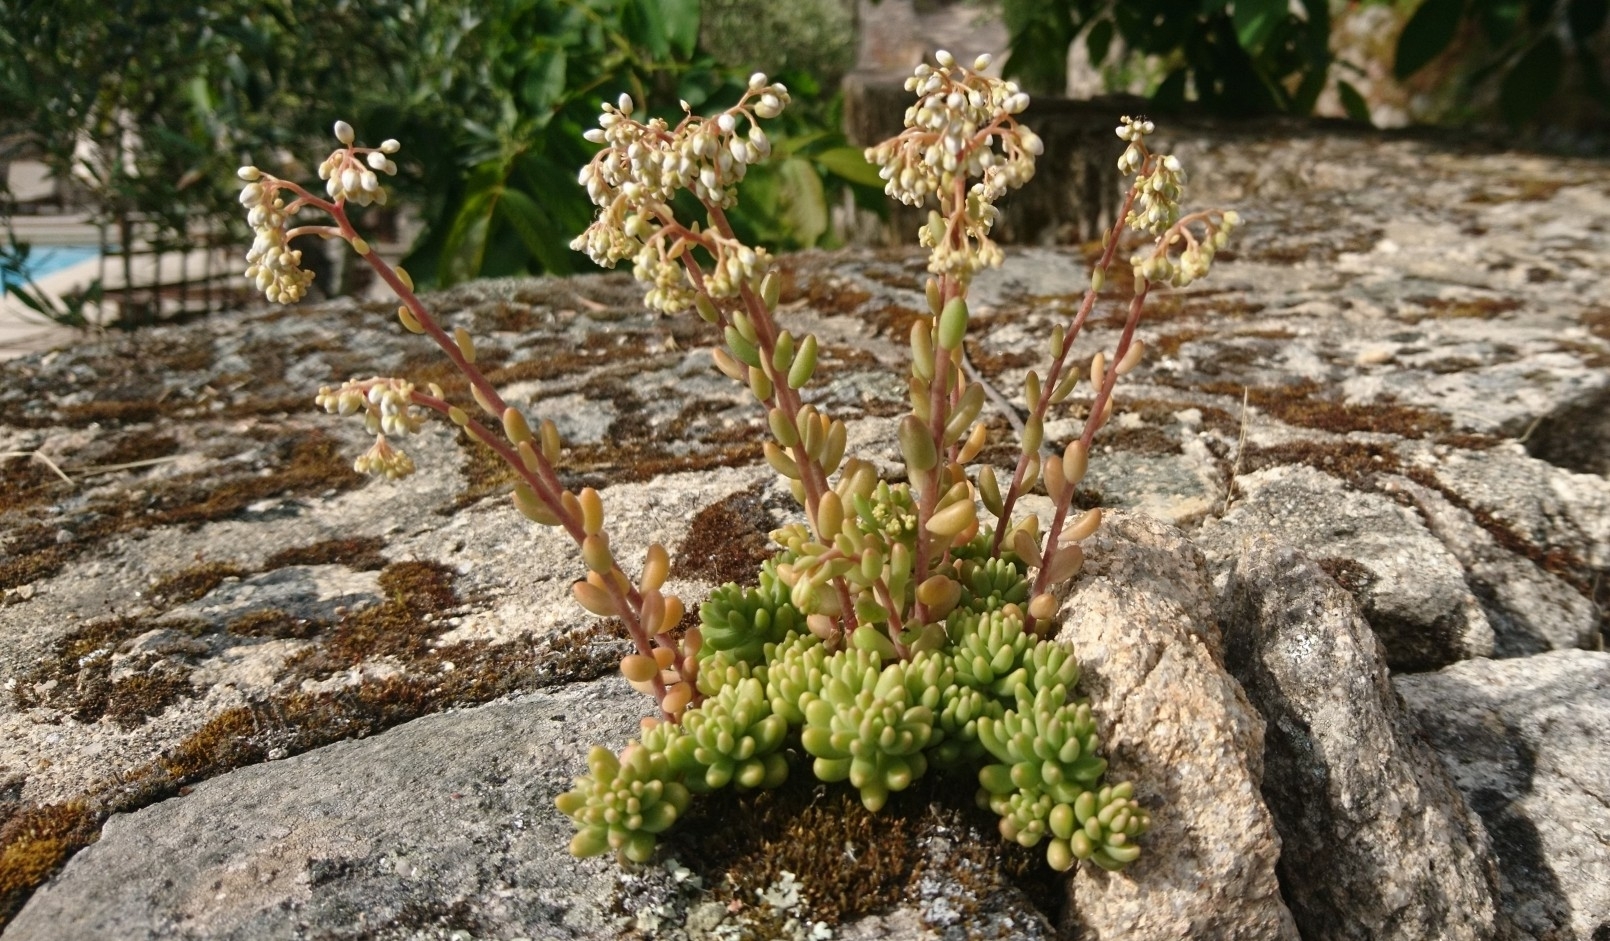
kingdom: Plantae
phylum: Tracheophyta
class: Magnoliopsida
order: Saxifragales
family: Crassulaceae
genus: Sedum
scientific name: Sedum album
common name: White stonecrop
